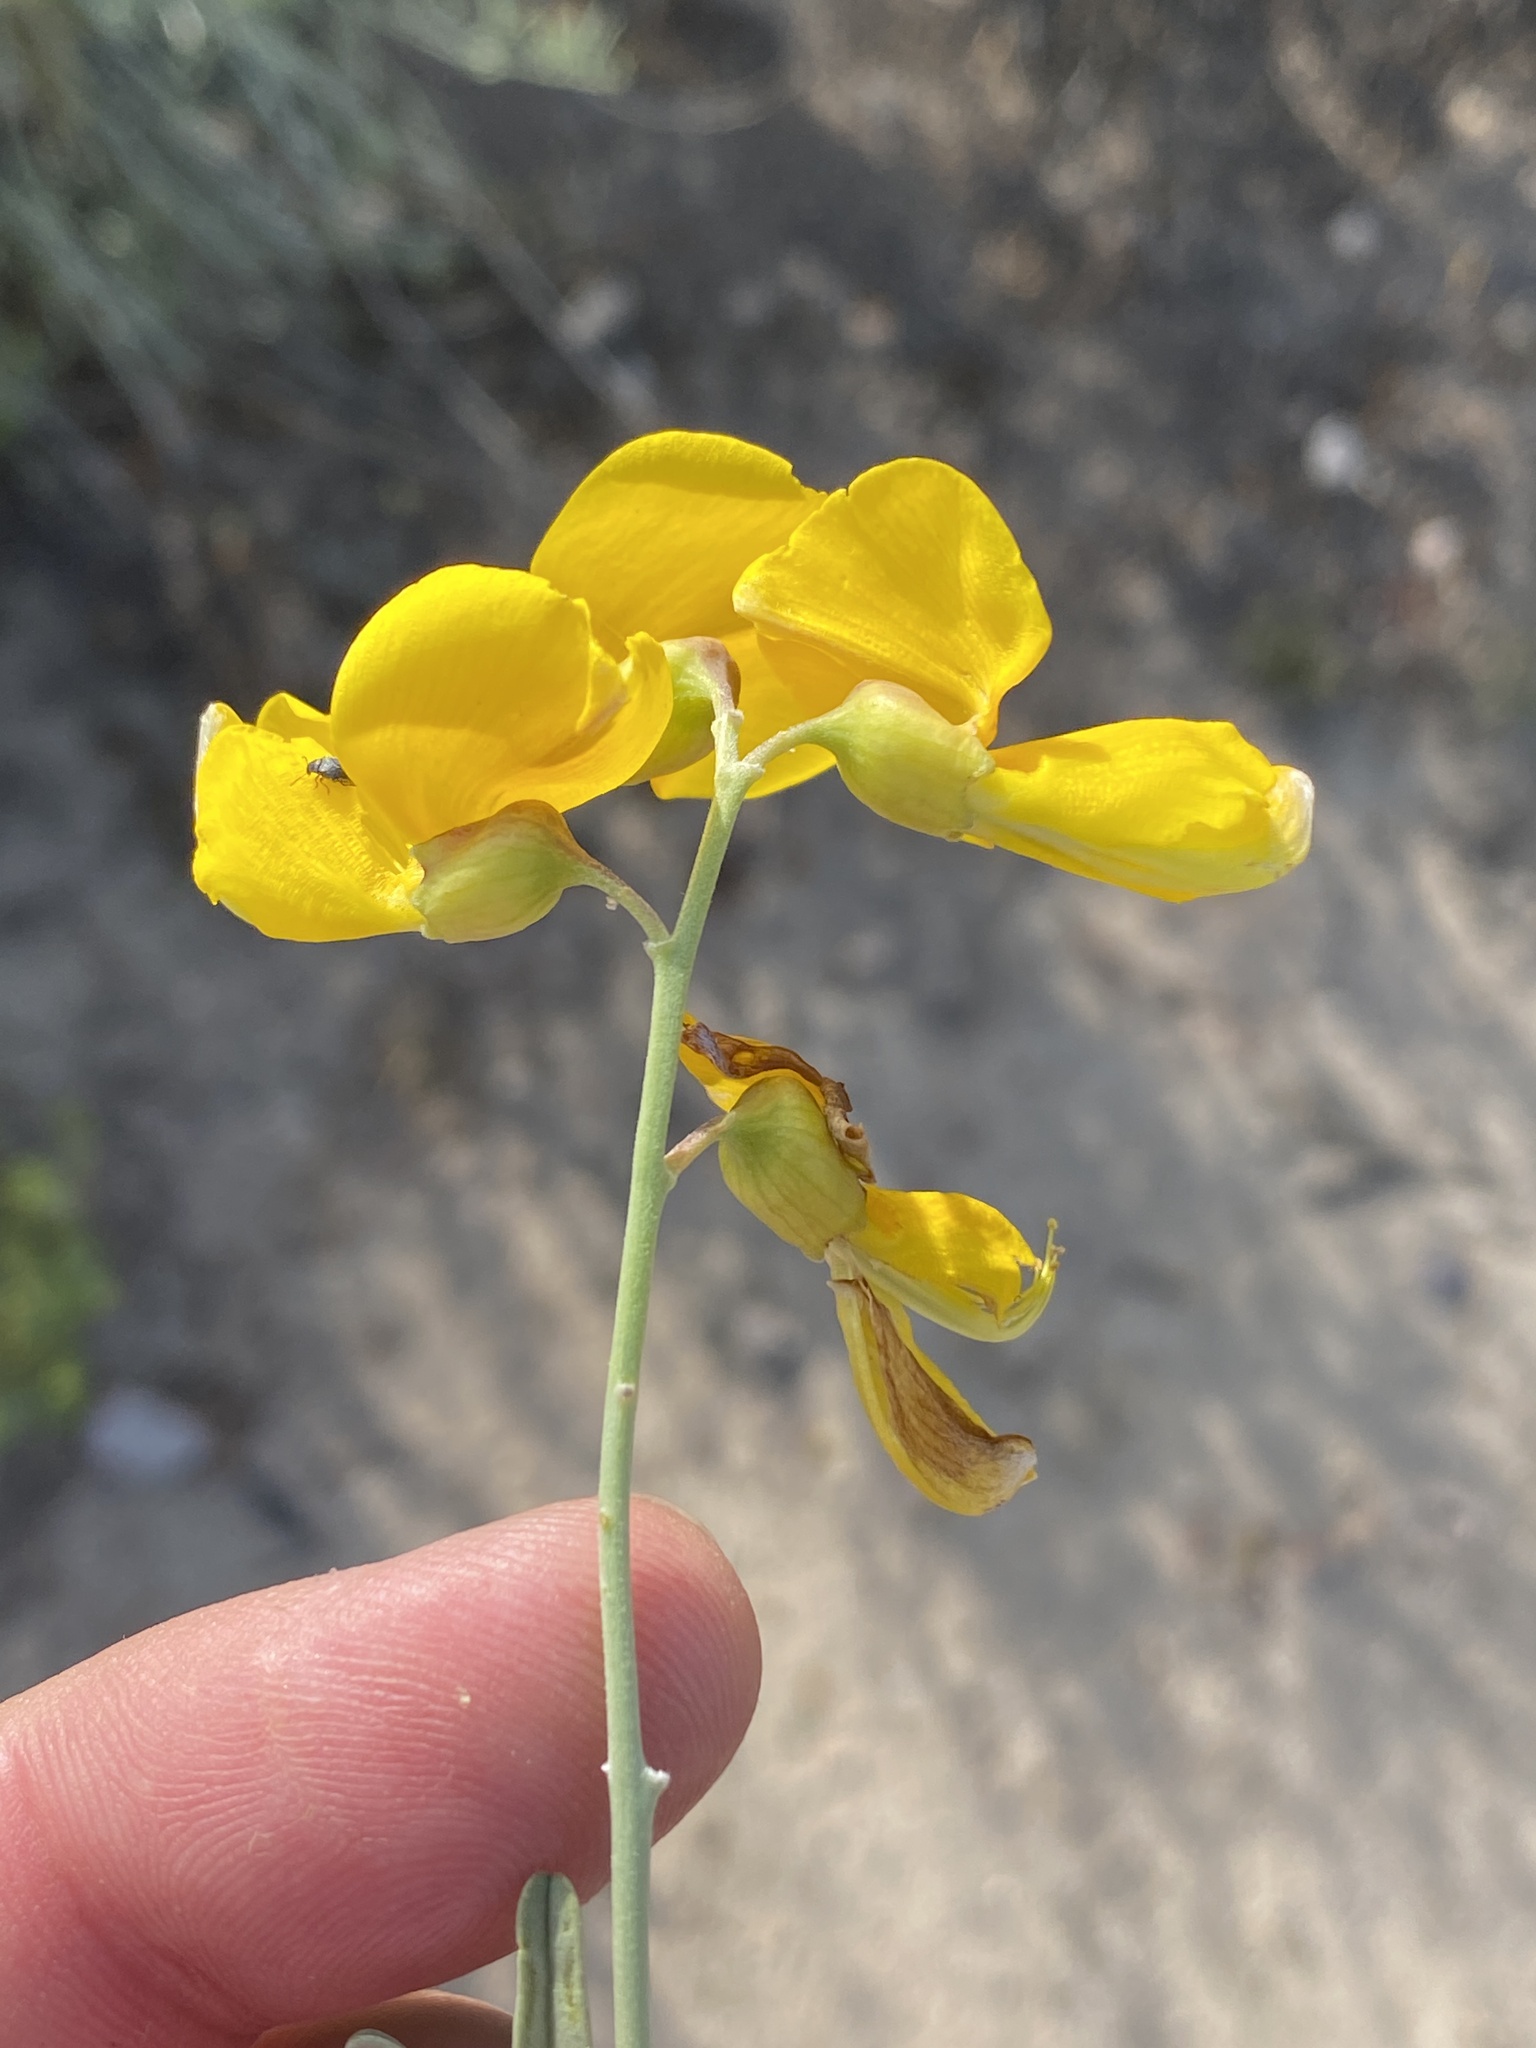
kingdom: Plantae
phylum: Tracheophyta
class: Magnoliopsida
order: Fabales
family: Fabaceae
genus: Calobota
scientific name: Calobota cytisoides
